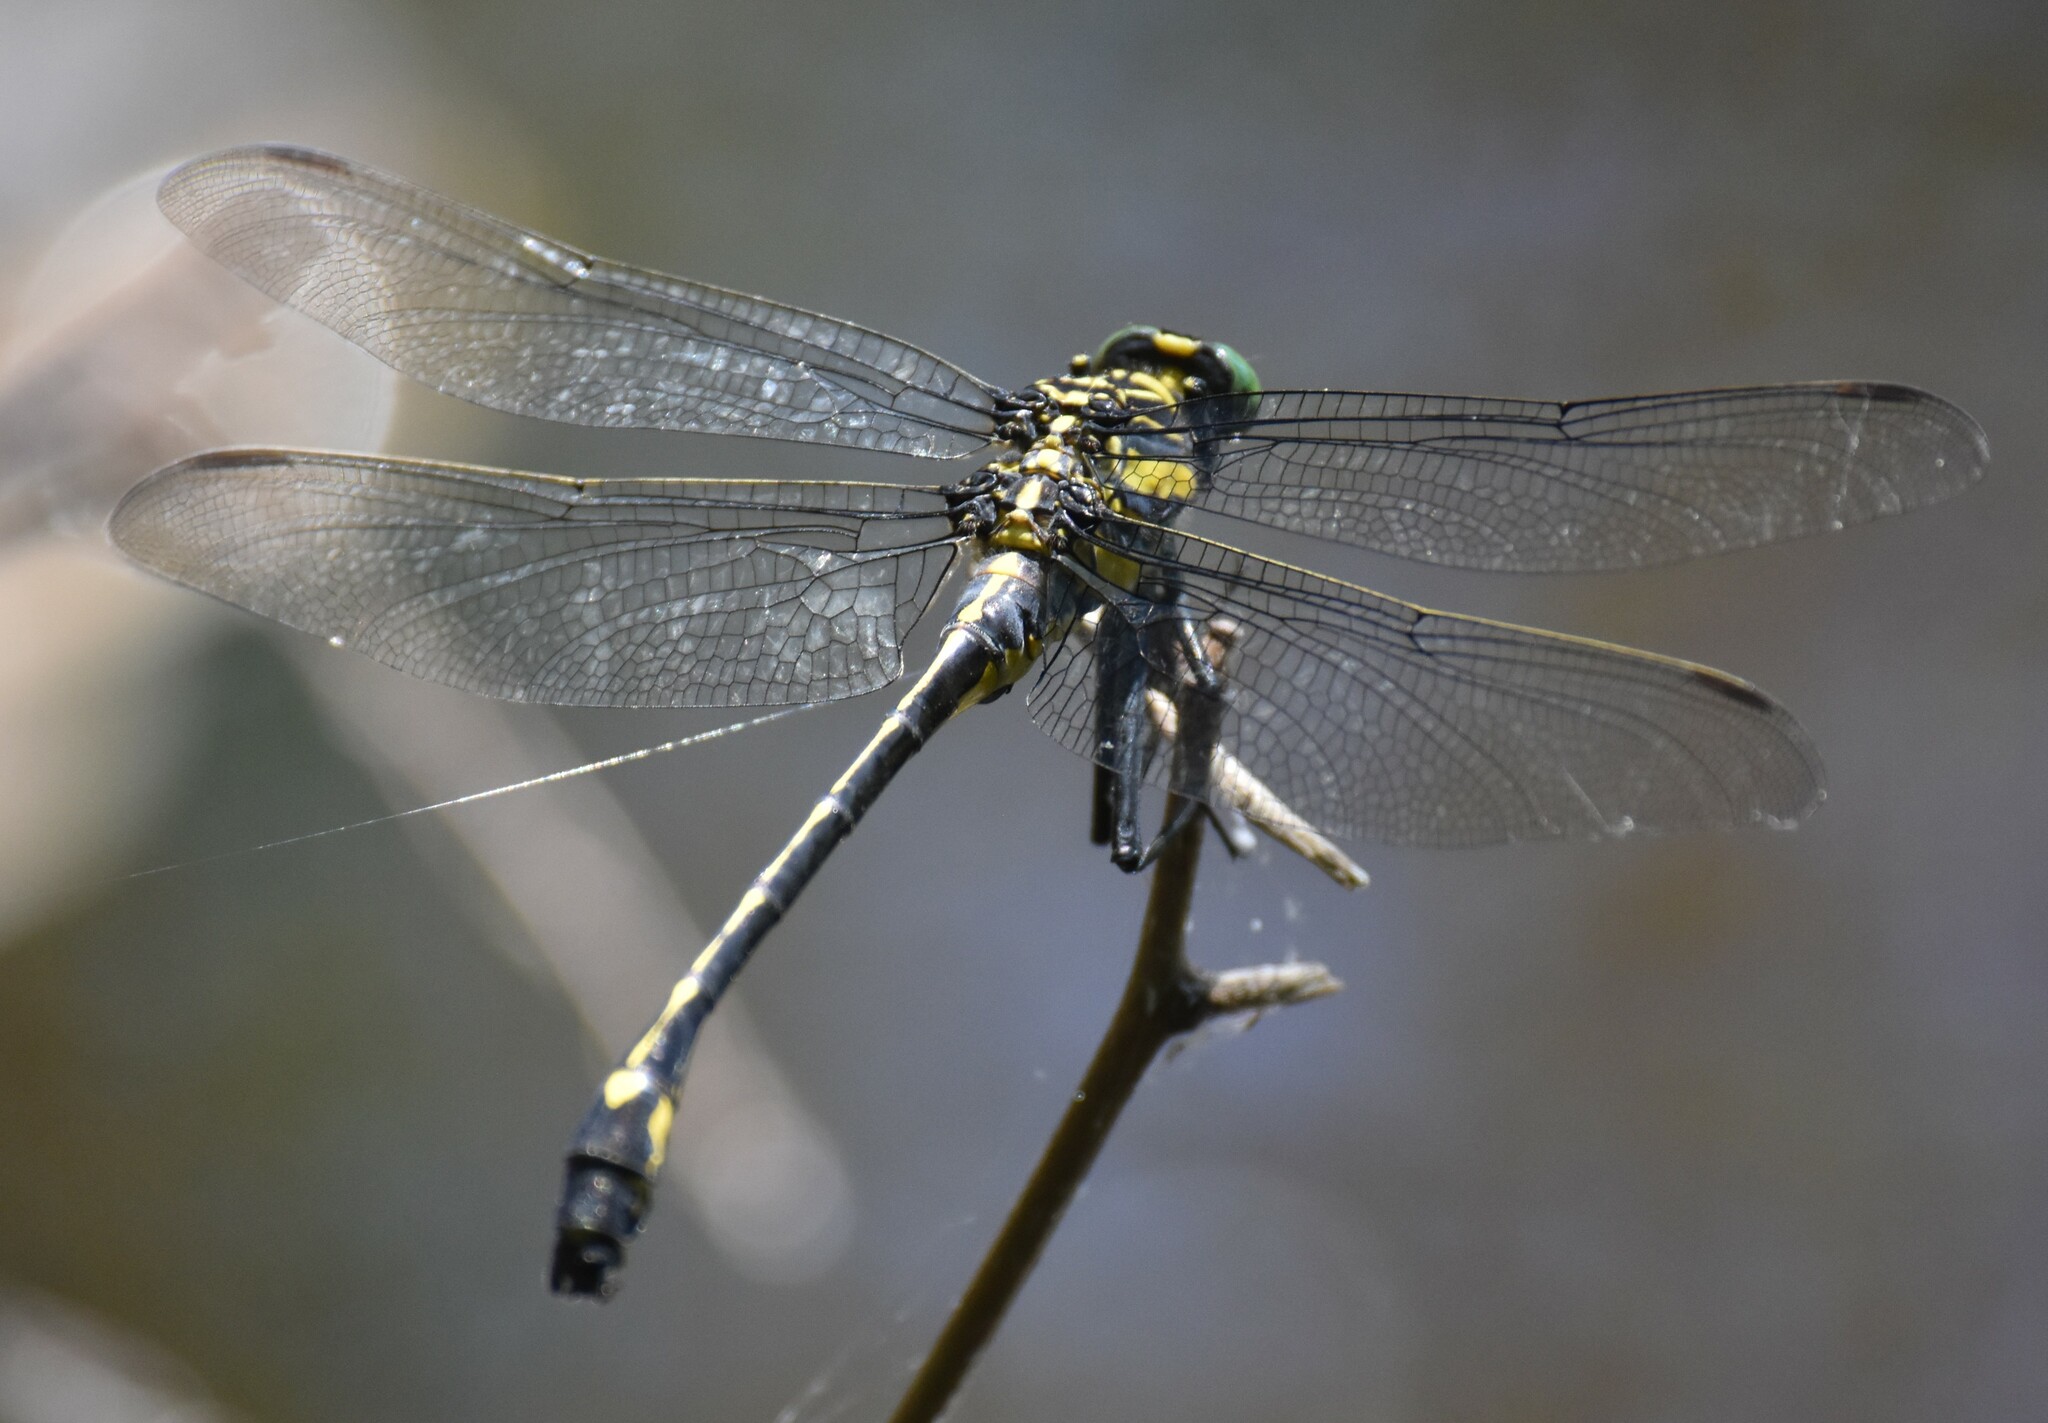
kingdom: Animalia
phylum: Arthropoda
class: Insecta
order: Odonata
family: Gomphidae
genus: Hagenius
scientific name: Hagenius brevistylus
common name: Dragonhunter
